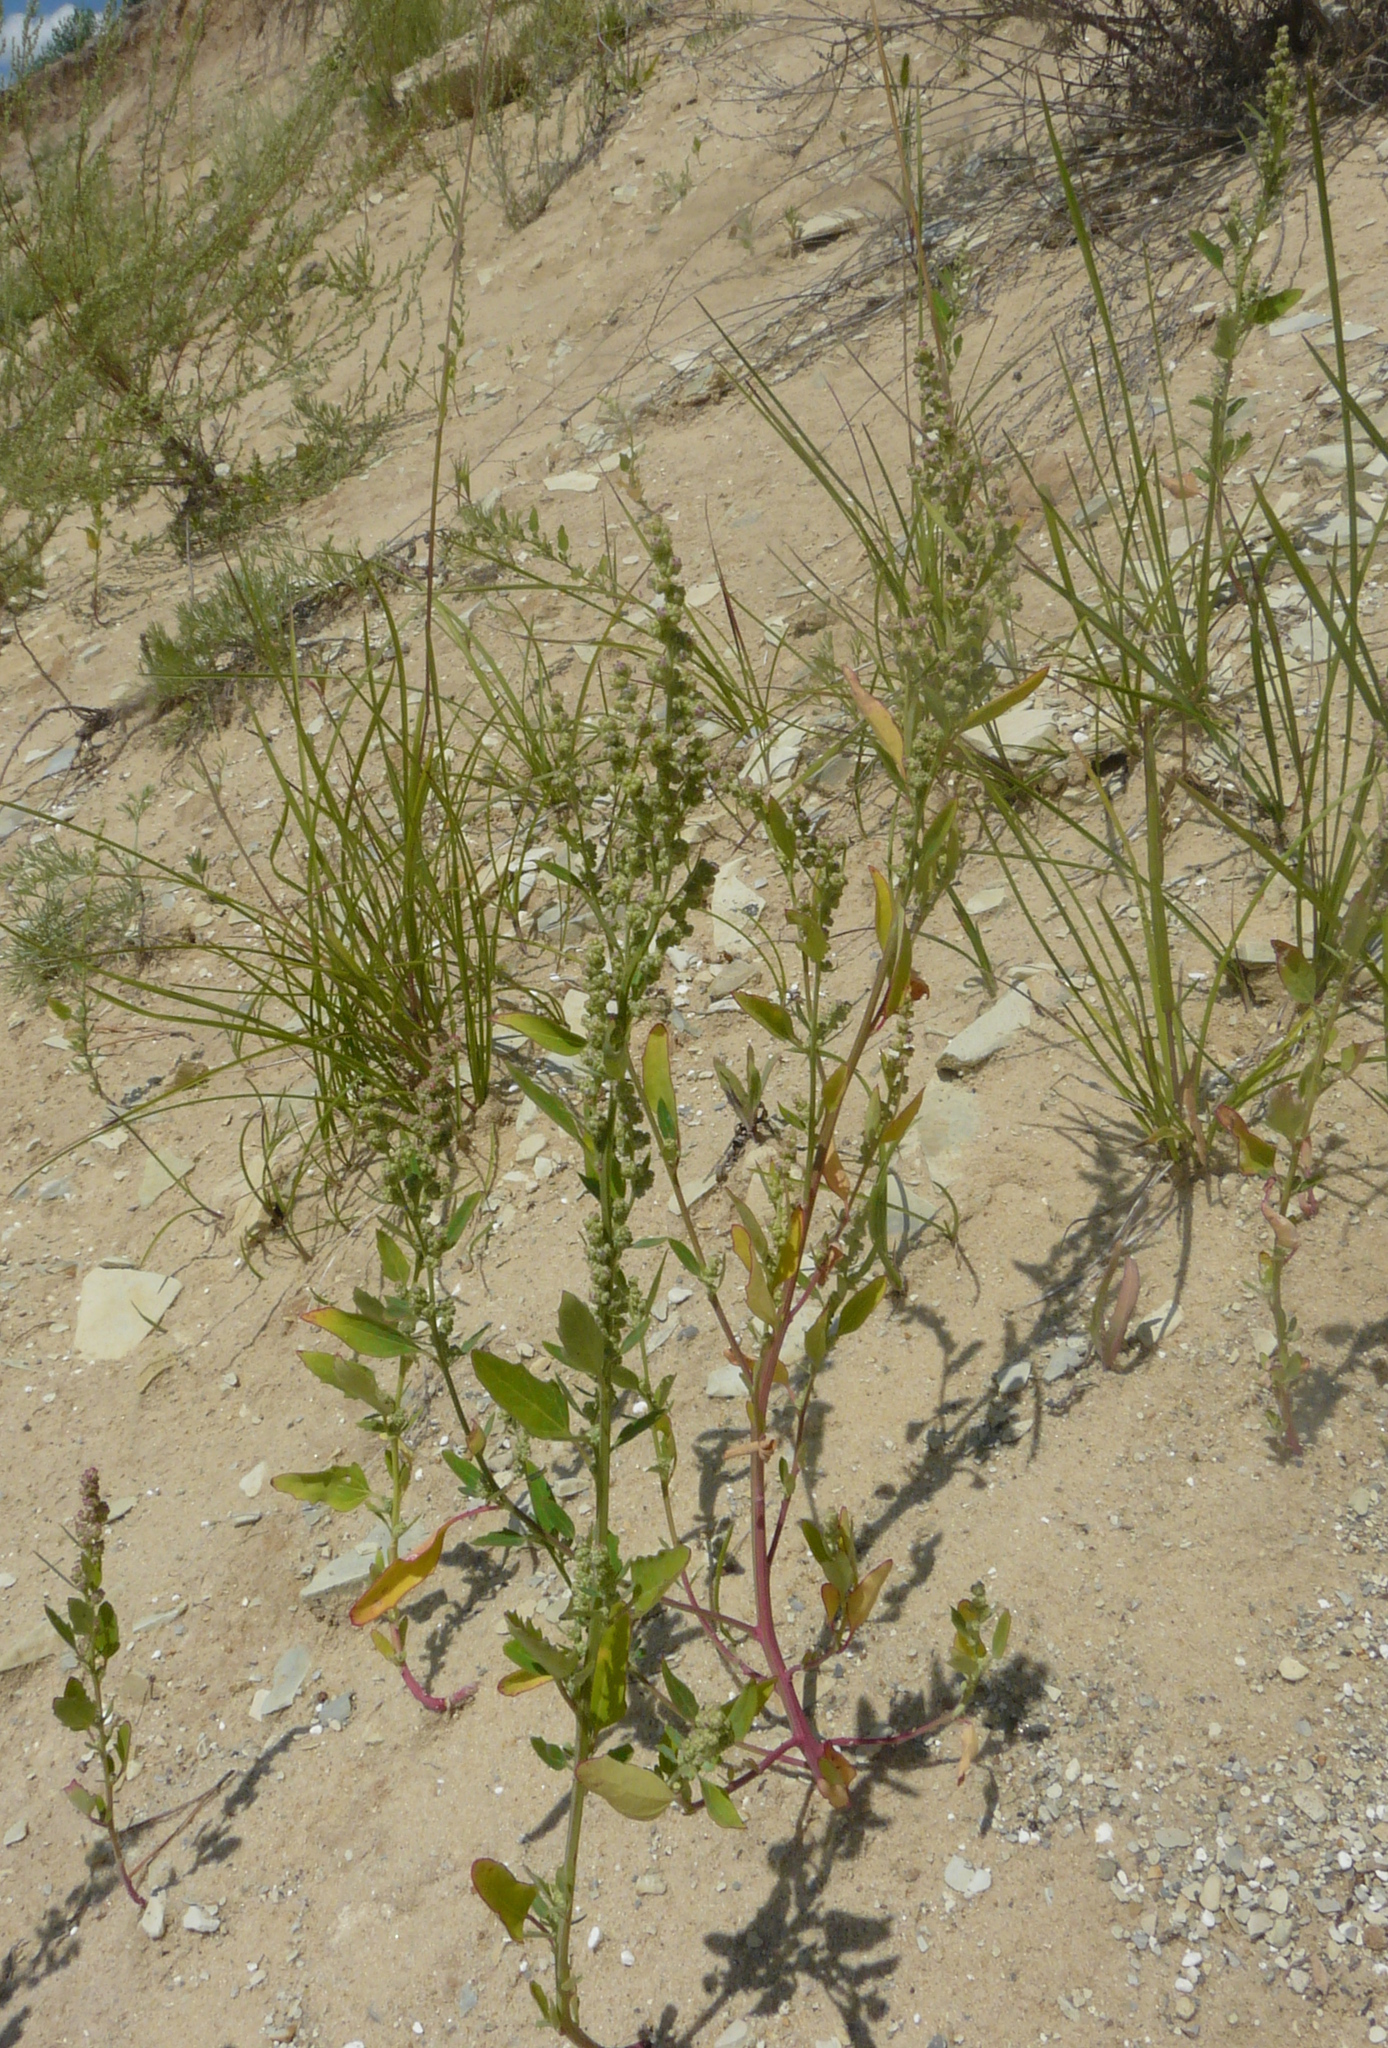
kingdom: Plantae
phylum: Tracheophyta
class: Magnoliopsida
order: Caryophyllales
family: Amaranthaceae
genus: Chenopodium
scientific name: Chenopodium album
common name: Fat-hen
